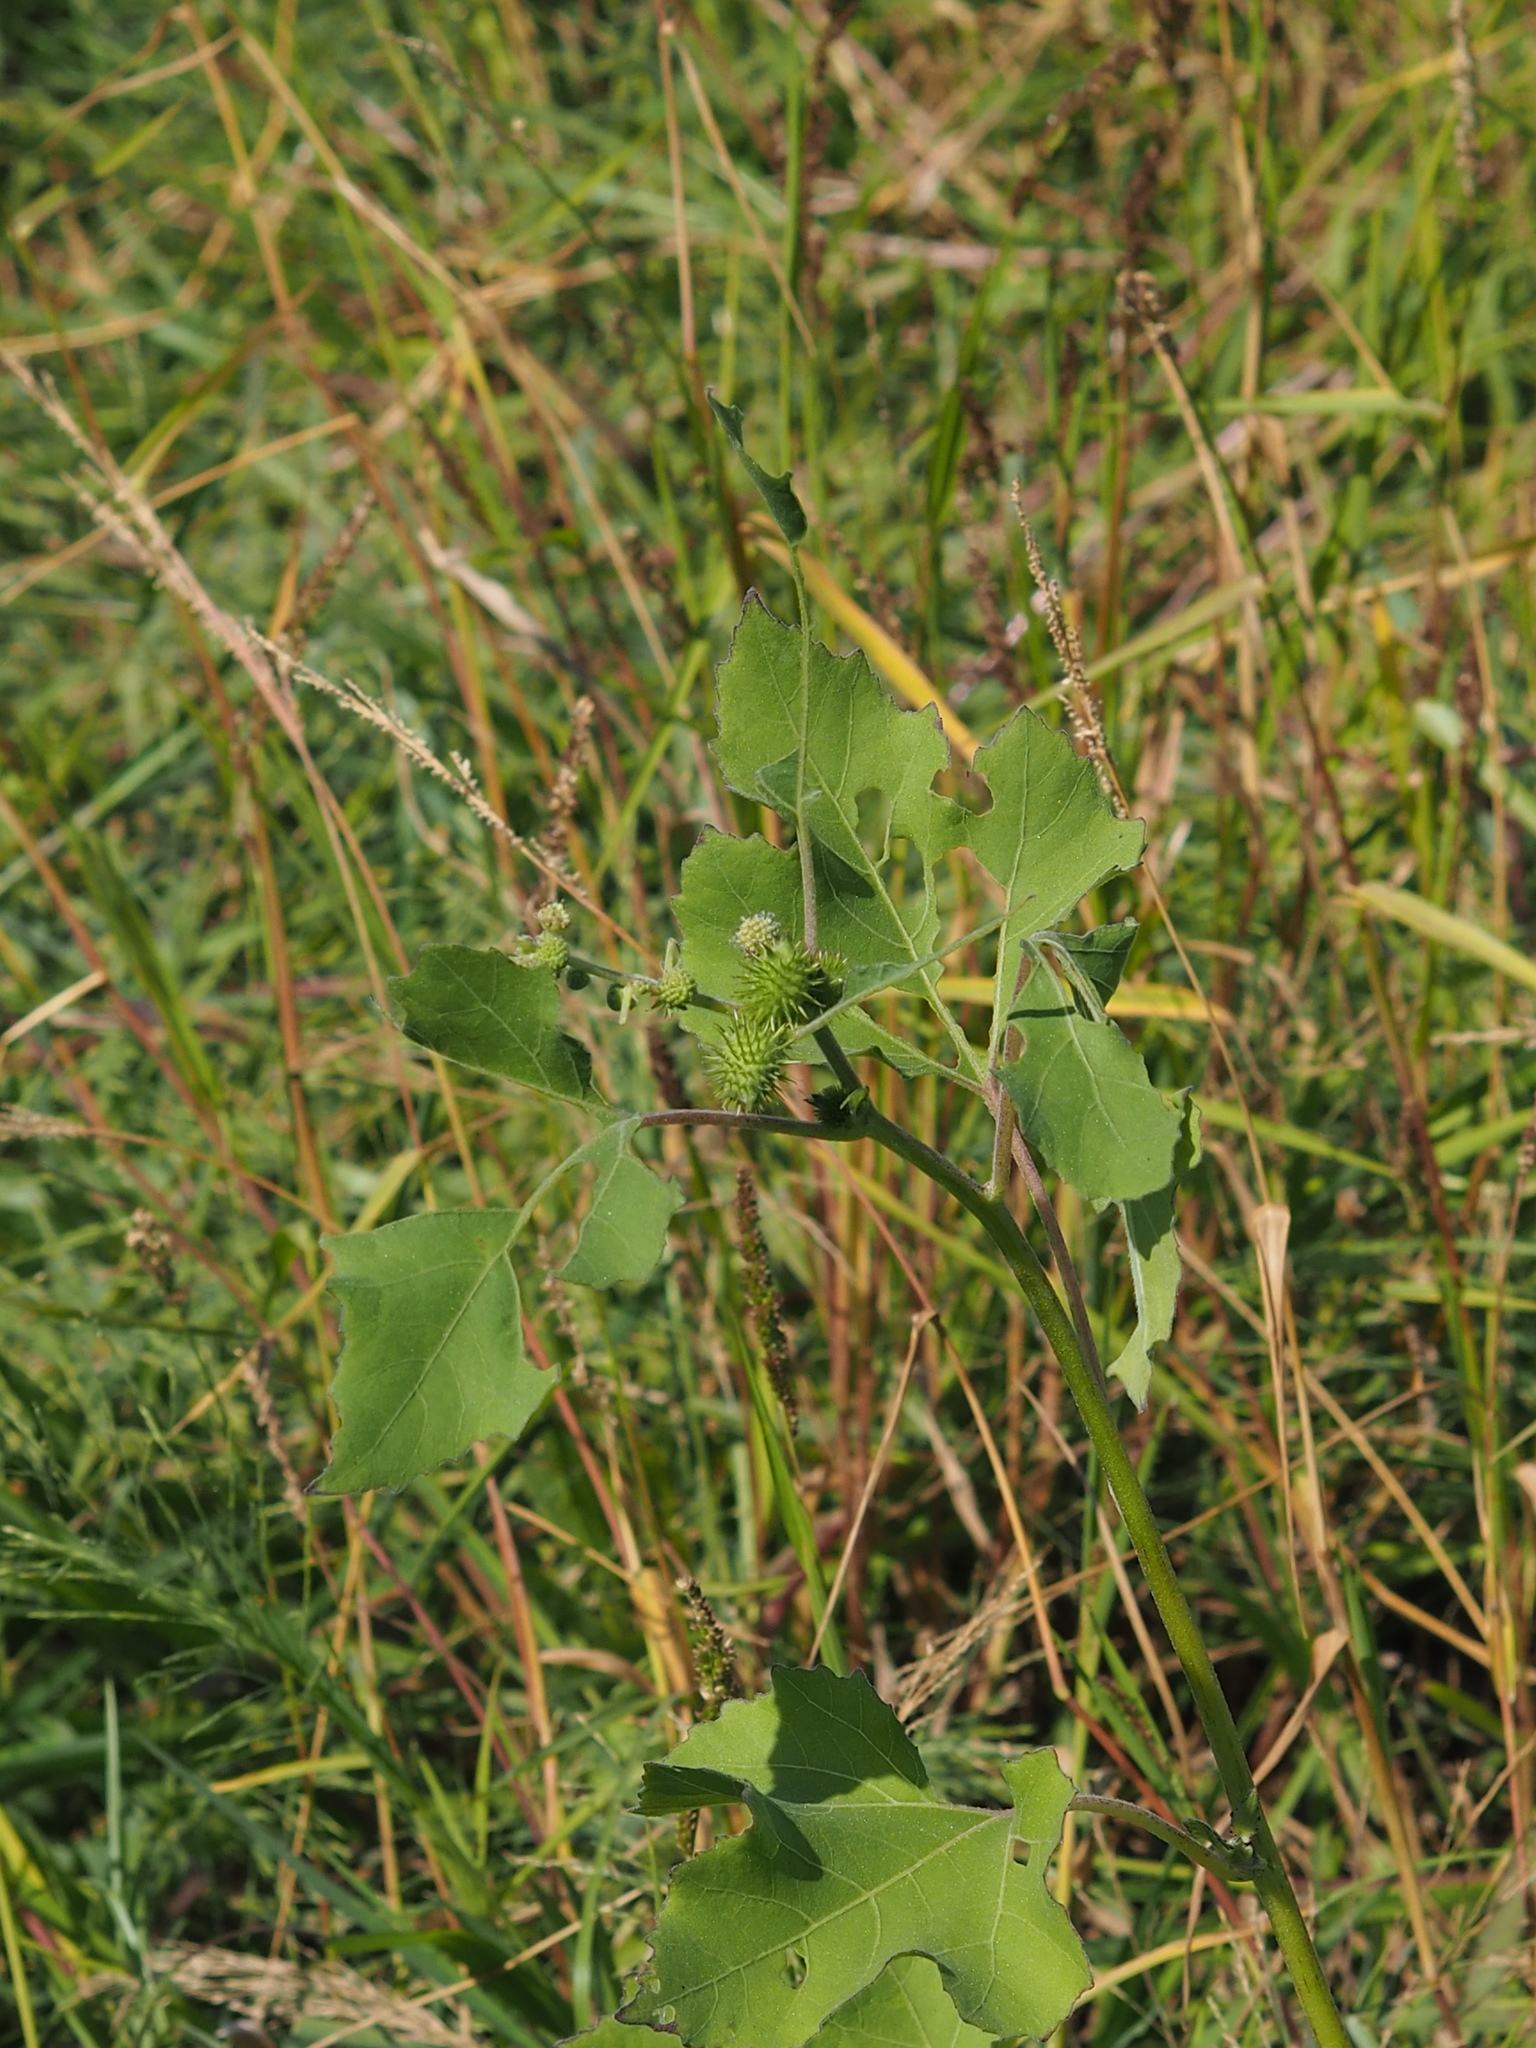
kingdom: Plantae
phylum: Tracheophyta
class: Magnoliopsida
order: Asterales
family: Asteraceae
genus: Xanthium
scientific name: Xanthium strumarium
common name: Rough cocklebur
